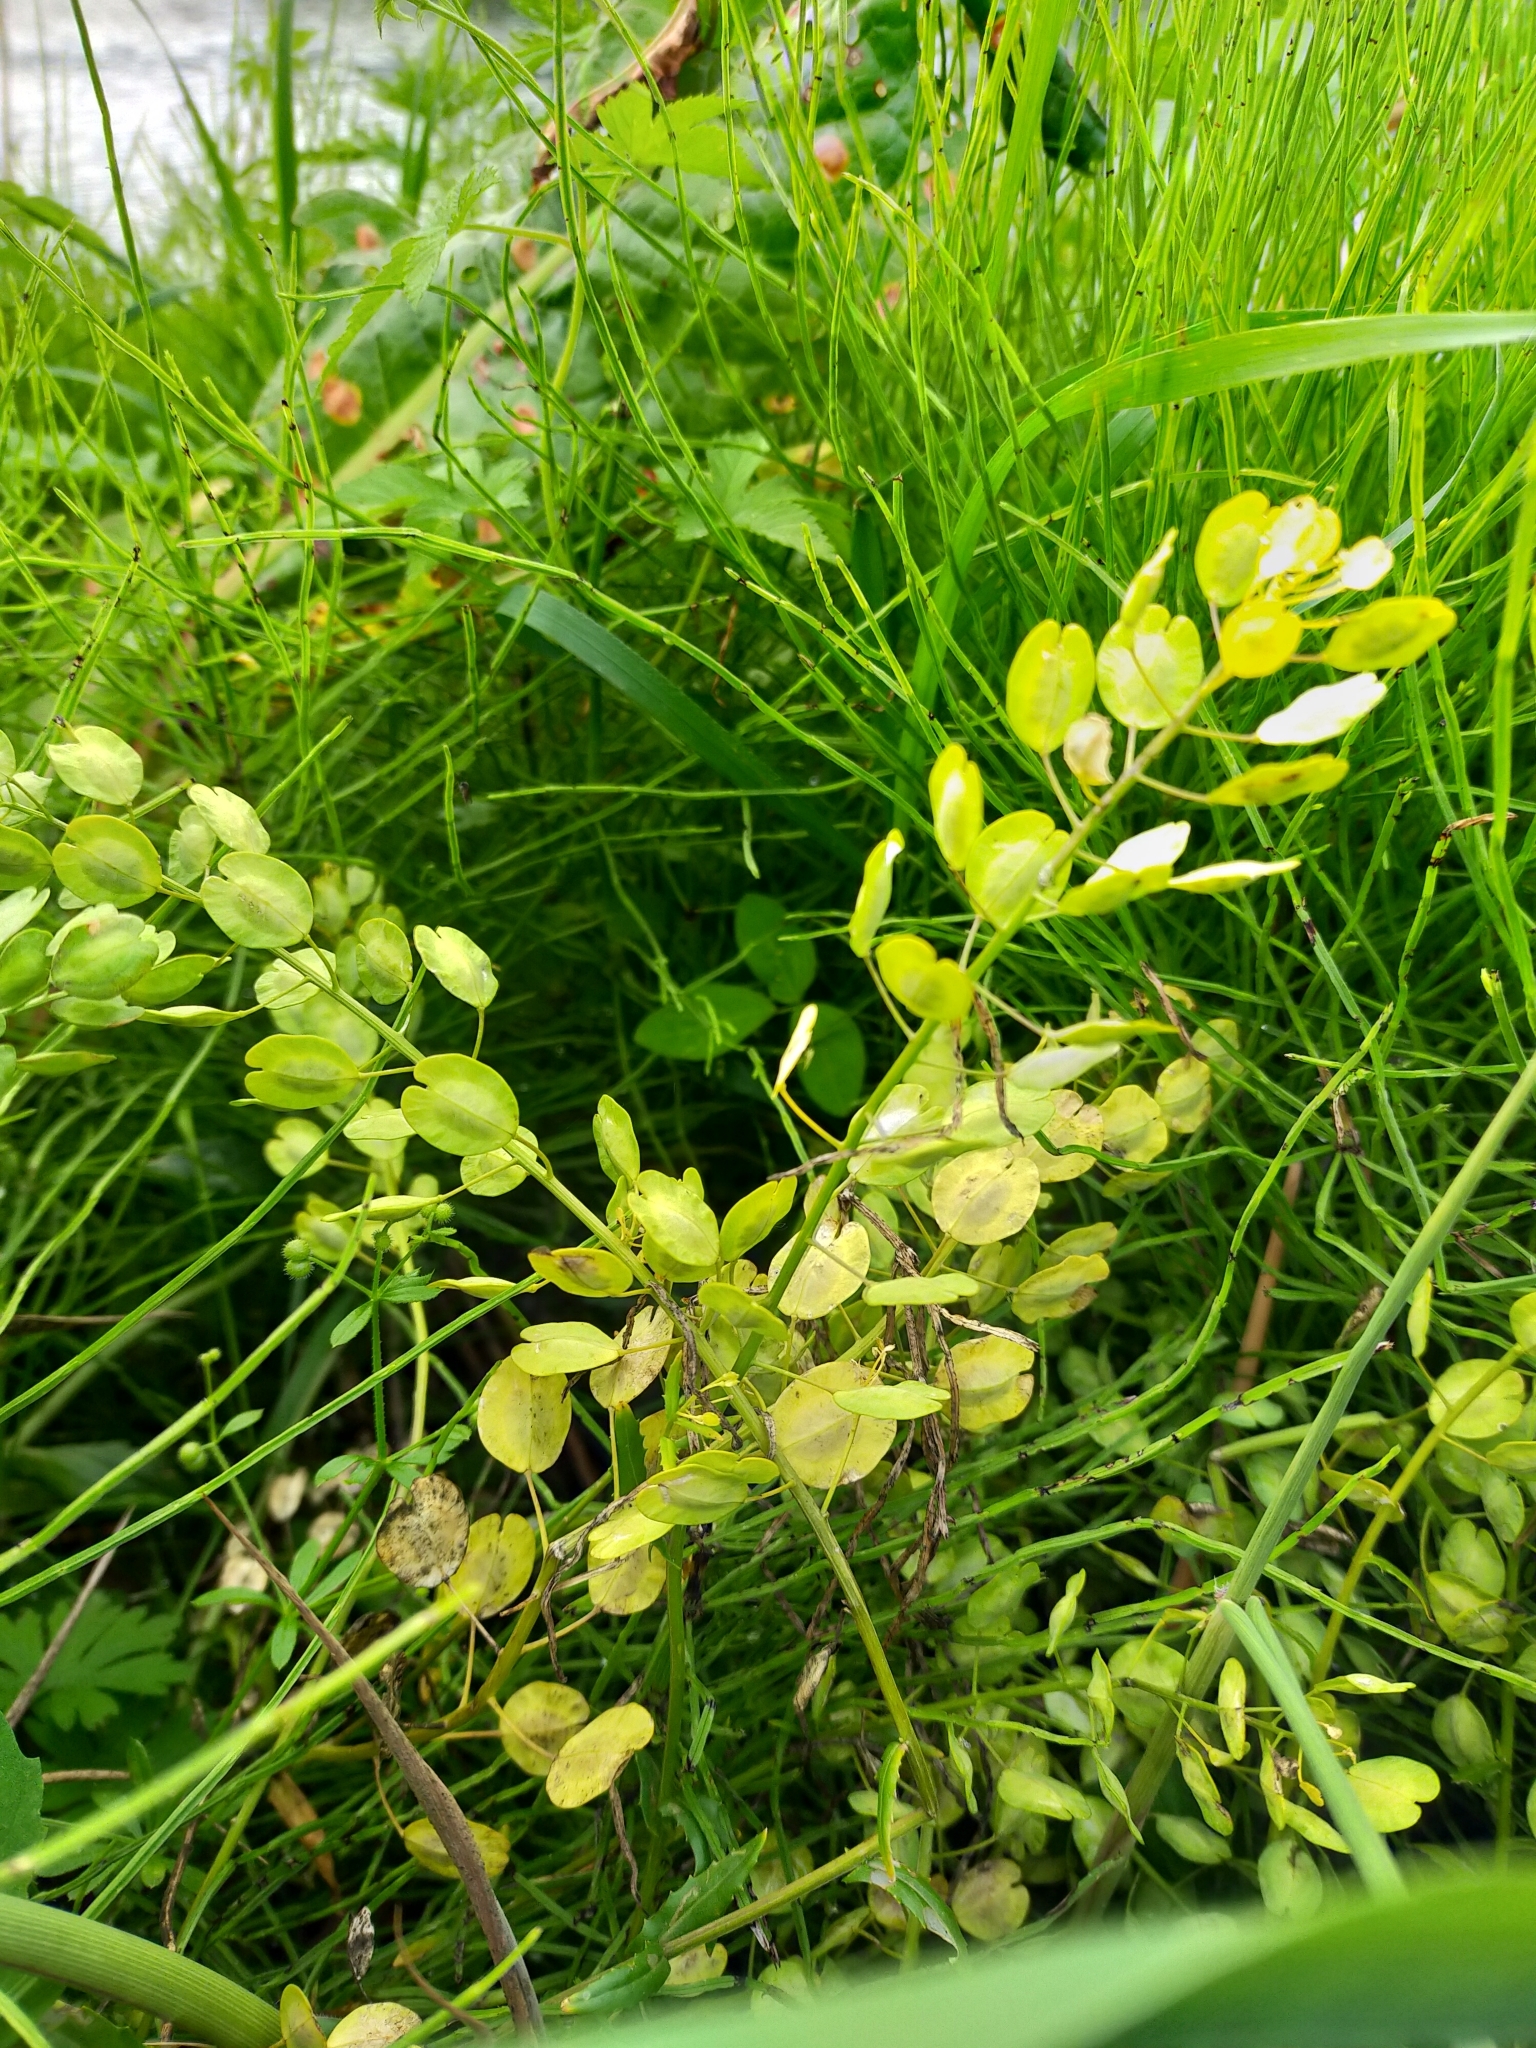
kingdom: Plantae
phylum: Tracheophyta
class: Magnoliopsida
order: Brassicales
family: Brassicaceae
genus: Thlaspi
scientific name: Thlaspi arvense
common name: Field pennycress
